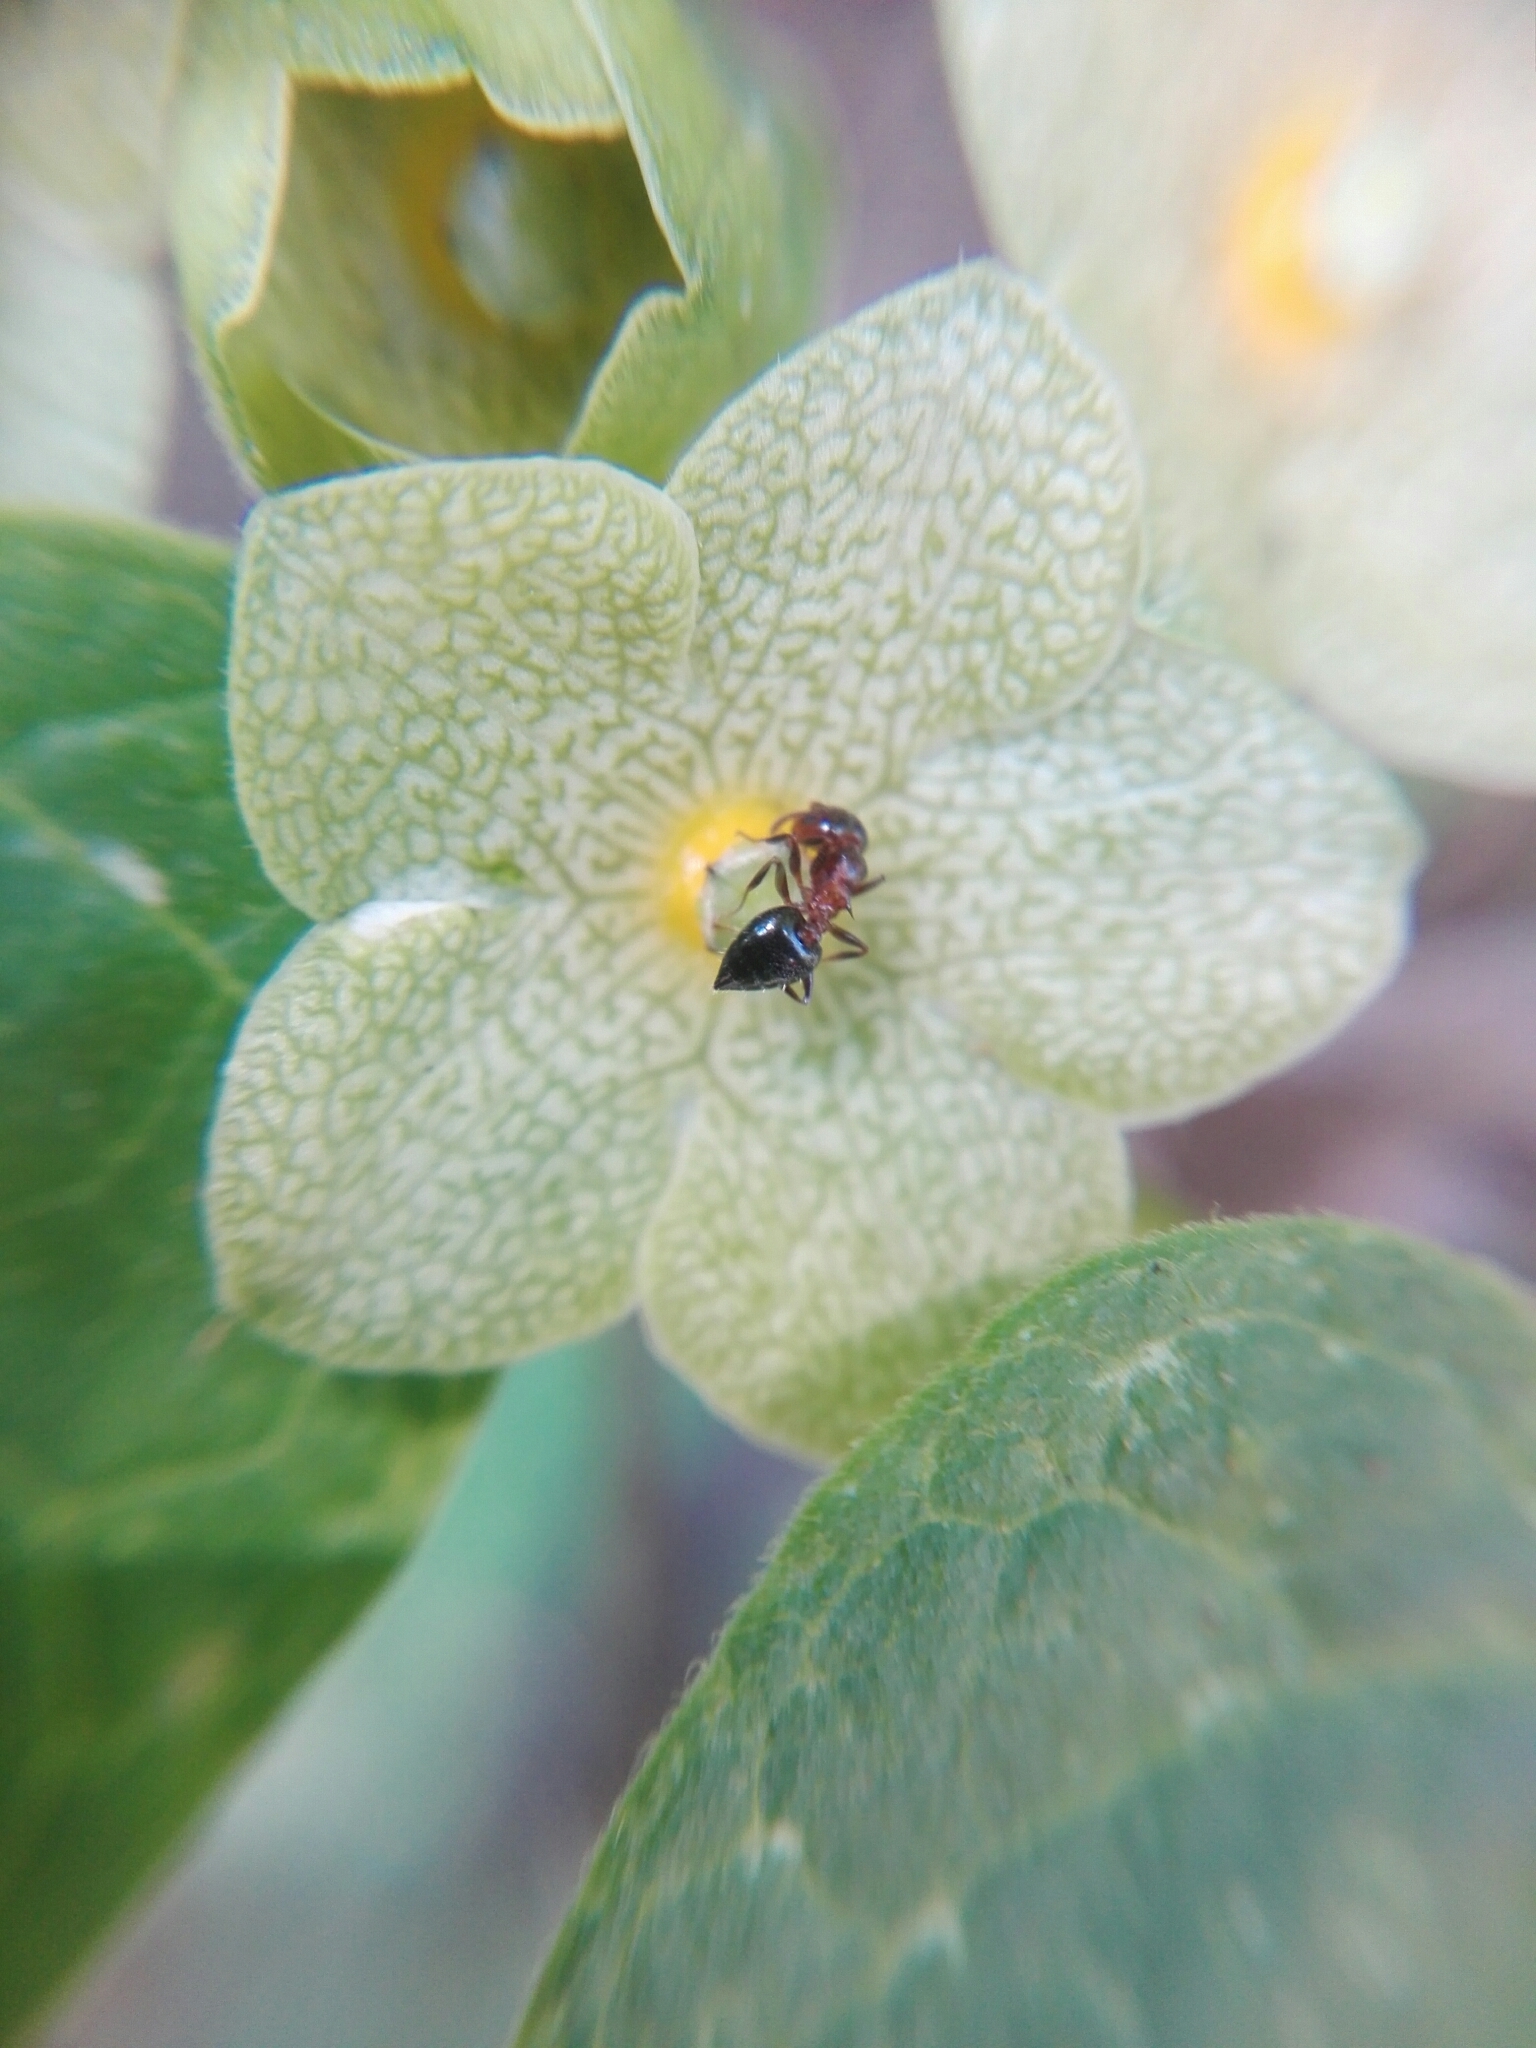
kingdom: Plantae
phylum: Tracheophyta
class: Magnoliopsida
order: Gentianales
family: Apocynaceae
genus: Dictyanthus
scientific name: Dictyanthus reticulatus
